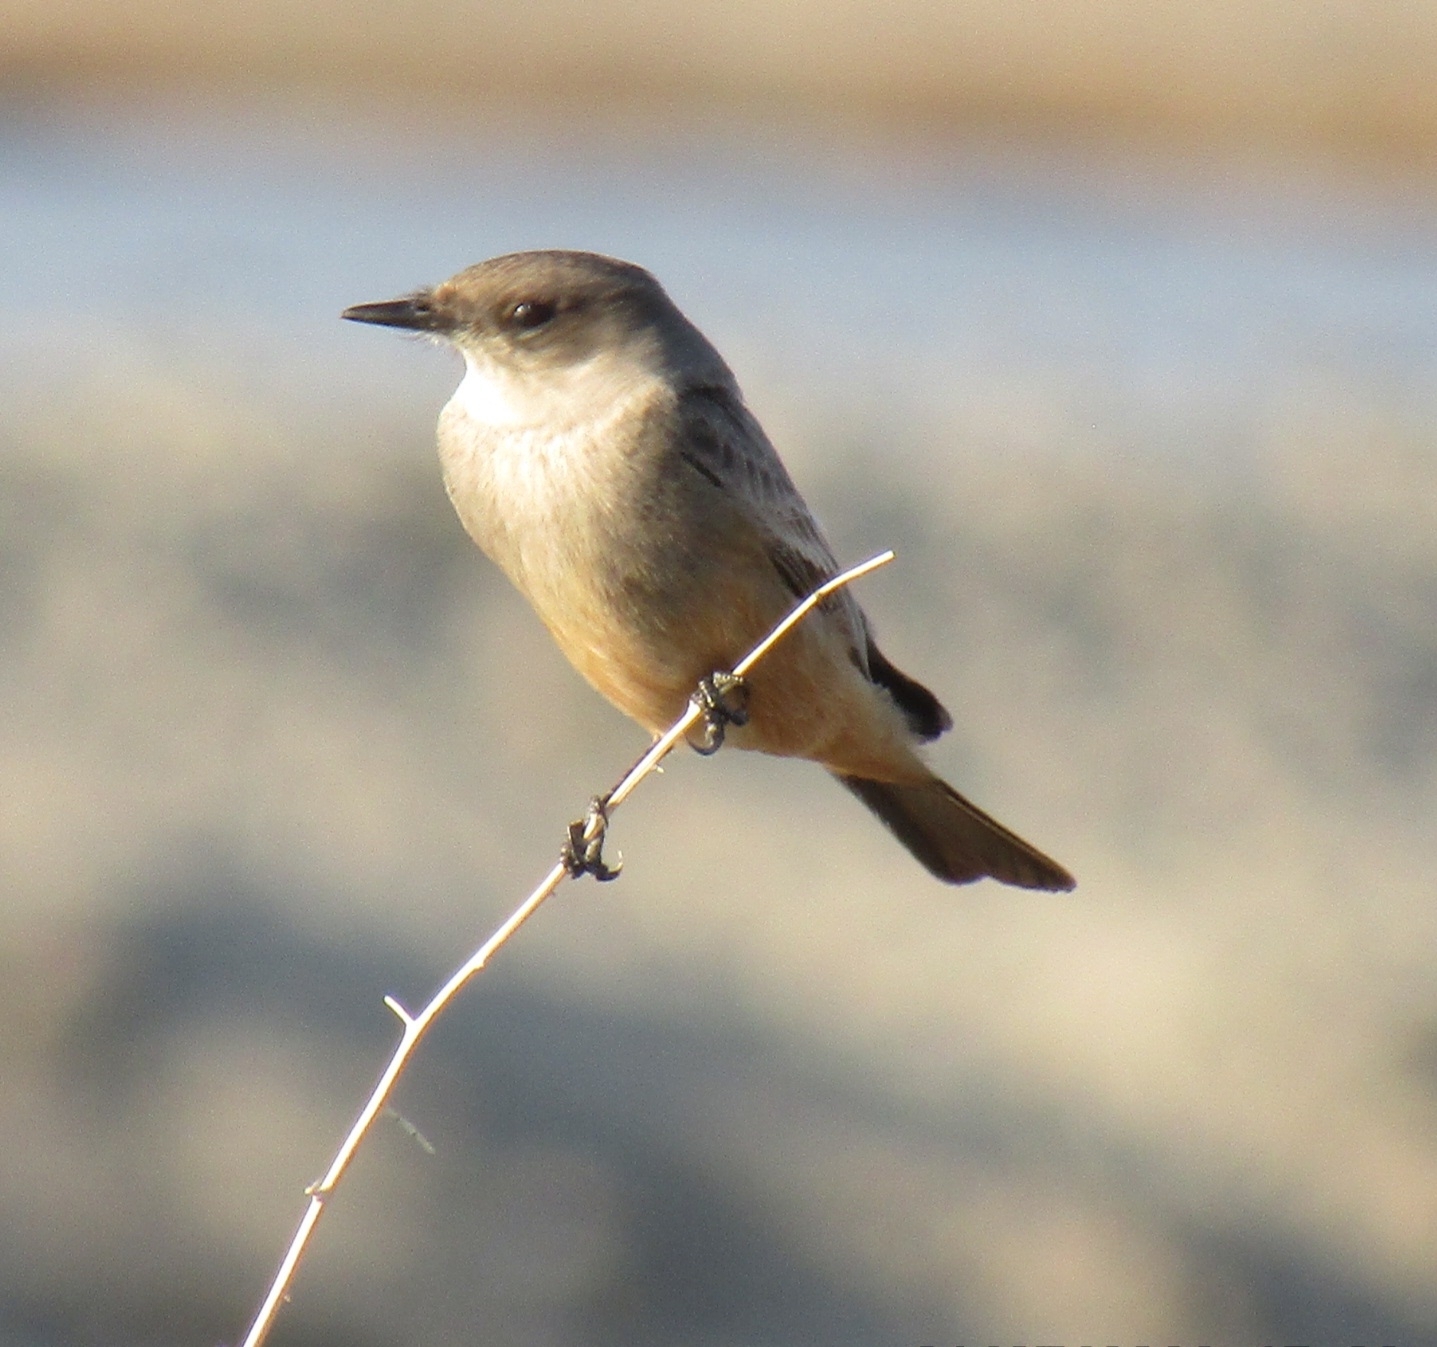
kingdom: Animalia
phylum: Chordata
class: Aves
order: Passeriformes
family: Tyrannidae
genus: Sayornis
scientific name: Sayornis saya
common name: Say's phoebe
